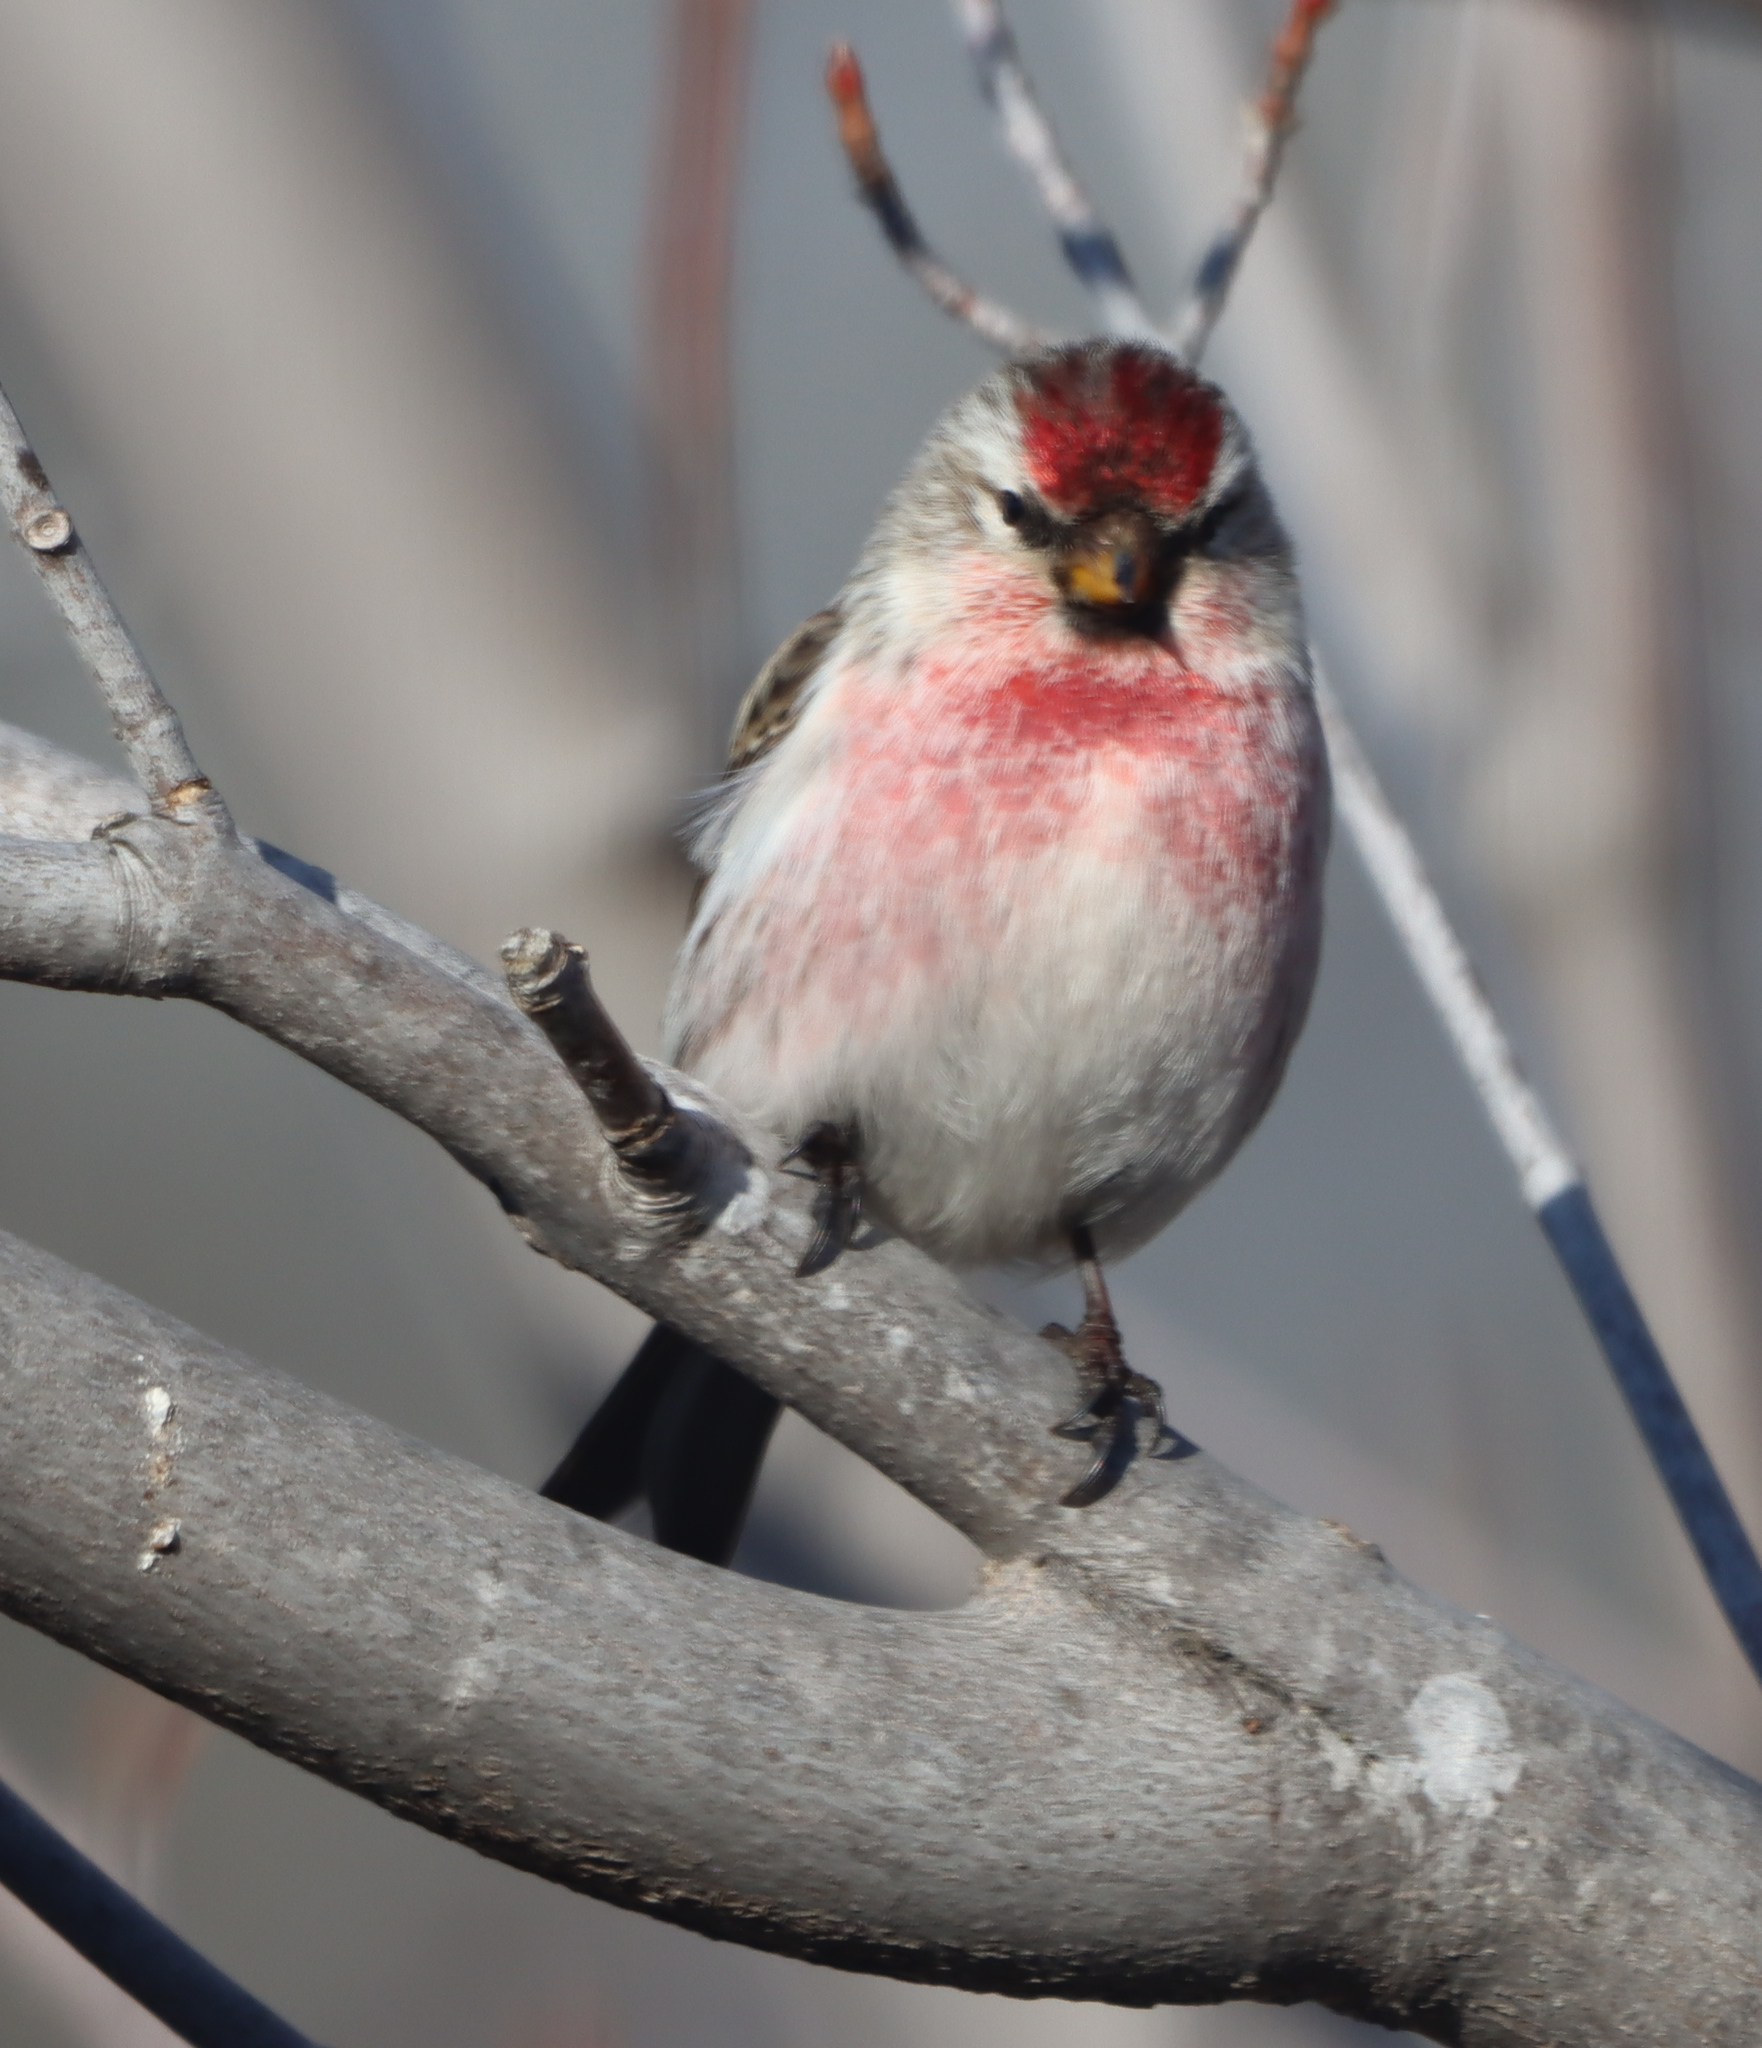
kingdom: Animalia
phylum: Chordata
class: Aves
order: Passeriformes
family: Fringillidae
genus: Acanthis
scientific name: Acanthis flammea
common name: Common redpoll
